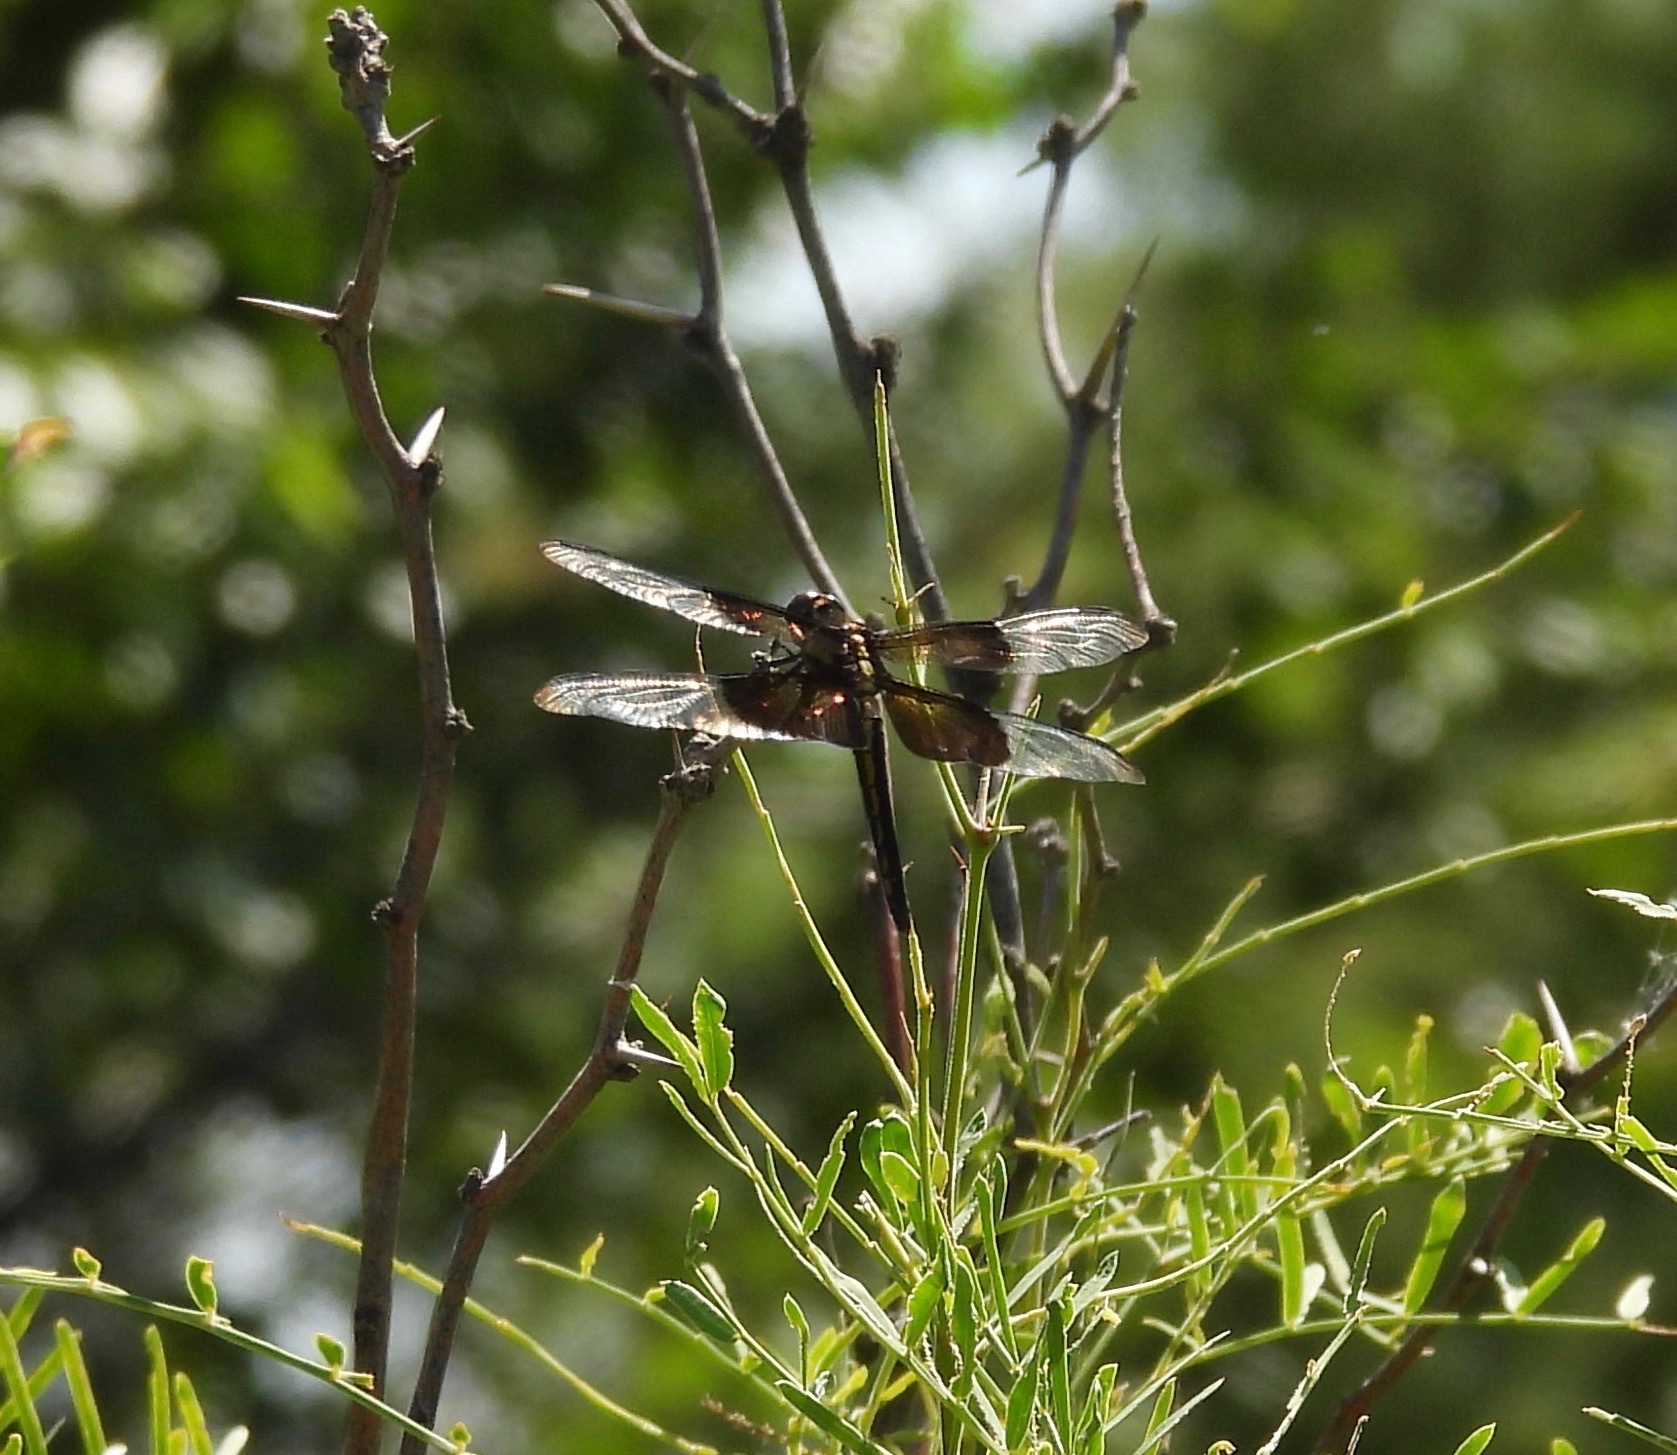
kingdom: Animalia
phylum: Arthropoda
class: Insecta
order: Odonata
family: Libellulidae
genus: Libellula
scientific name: Libellula luctuosa
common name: Widow skimmer
